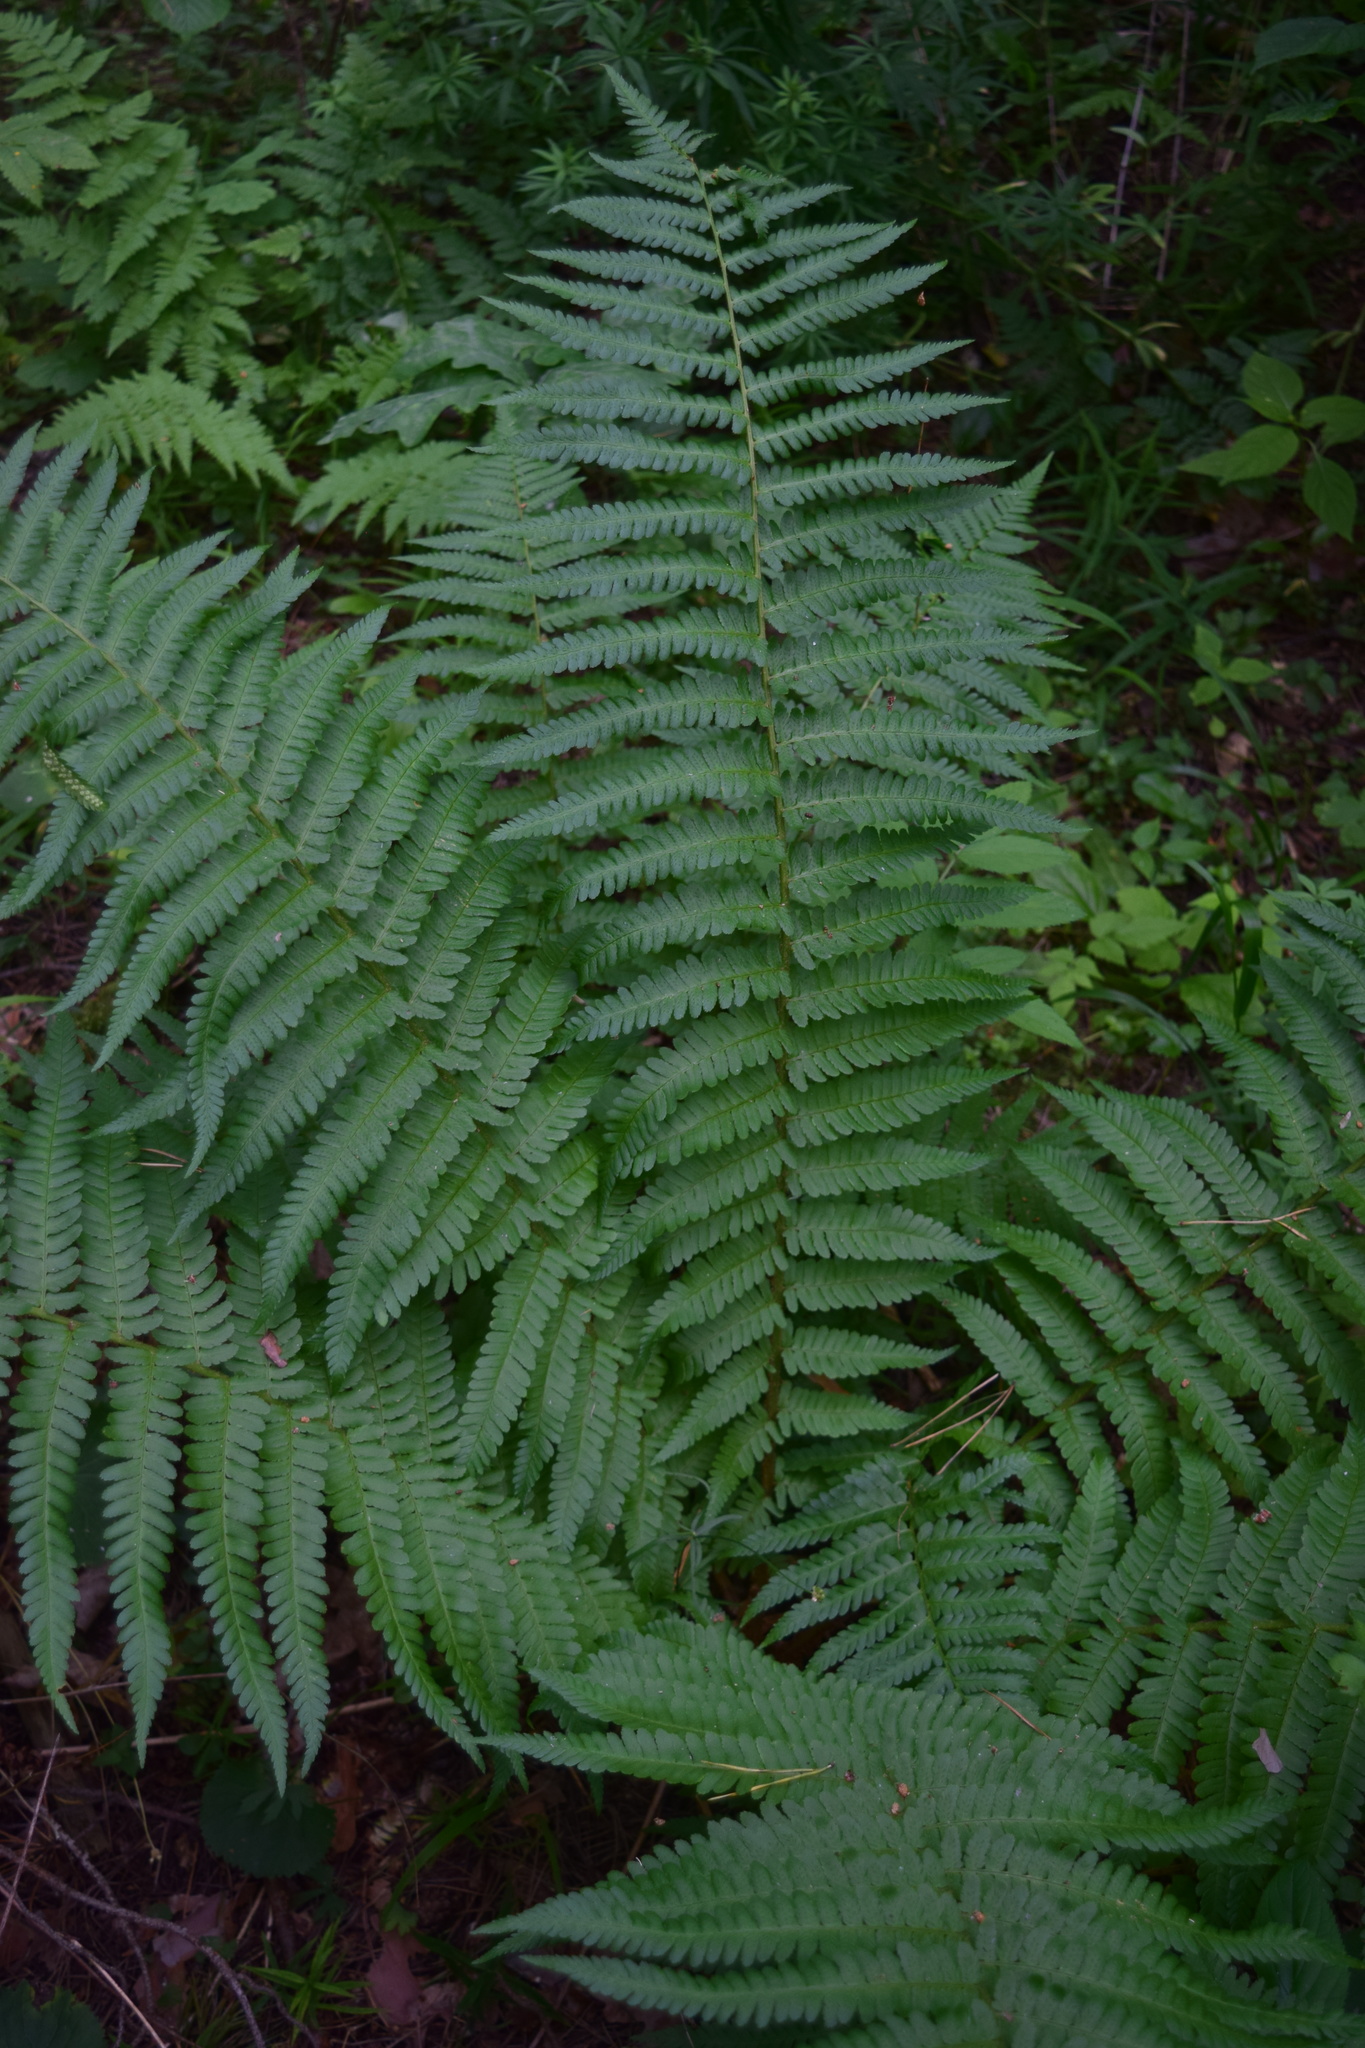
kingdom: Plantae
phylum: Tracheophyta
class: Polypodiopsida
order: Polypodiales
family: Dryopteridaceae
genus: Dryopteris
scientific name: Dryopteris filix-mas
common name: Male fern
